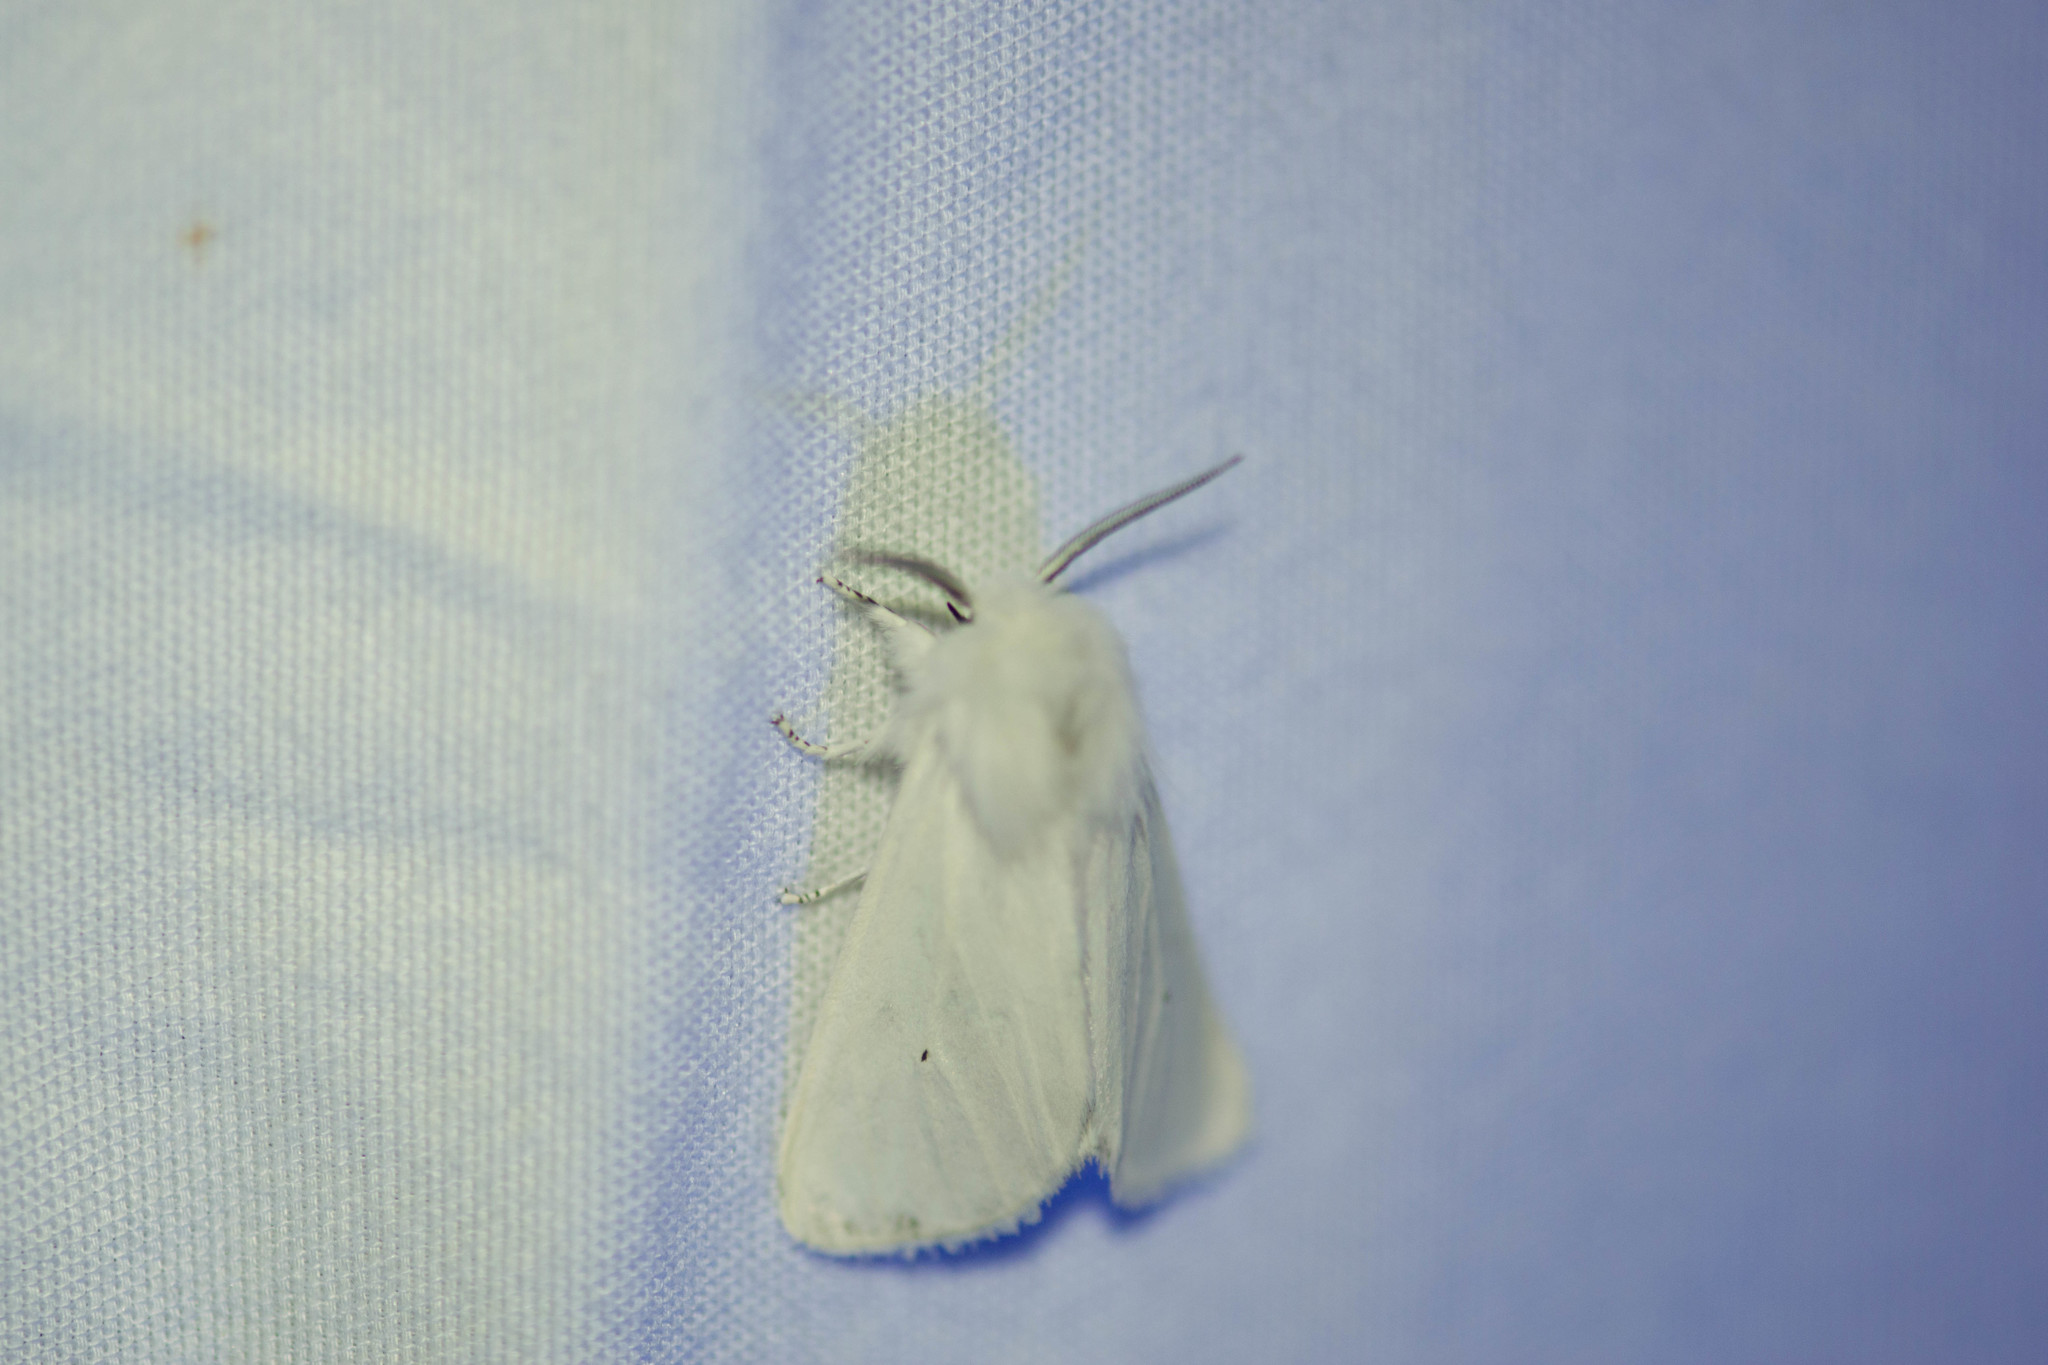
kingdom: Animalia
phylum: Arthropoda
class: Insecta
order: Lepidoptera
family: Erebidae
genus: Spilosoma
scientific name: Spilosoma virginica
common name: Virginia tiger moth
